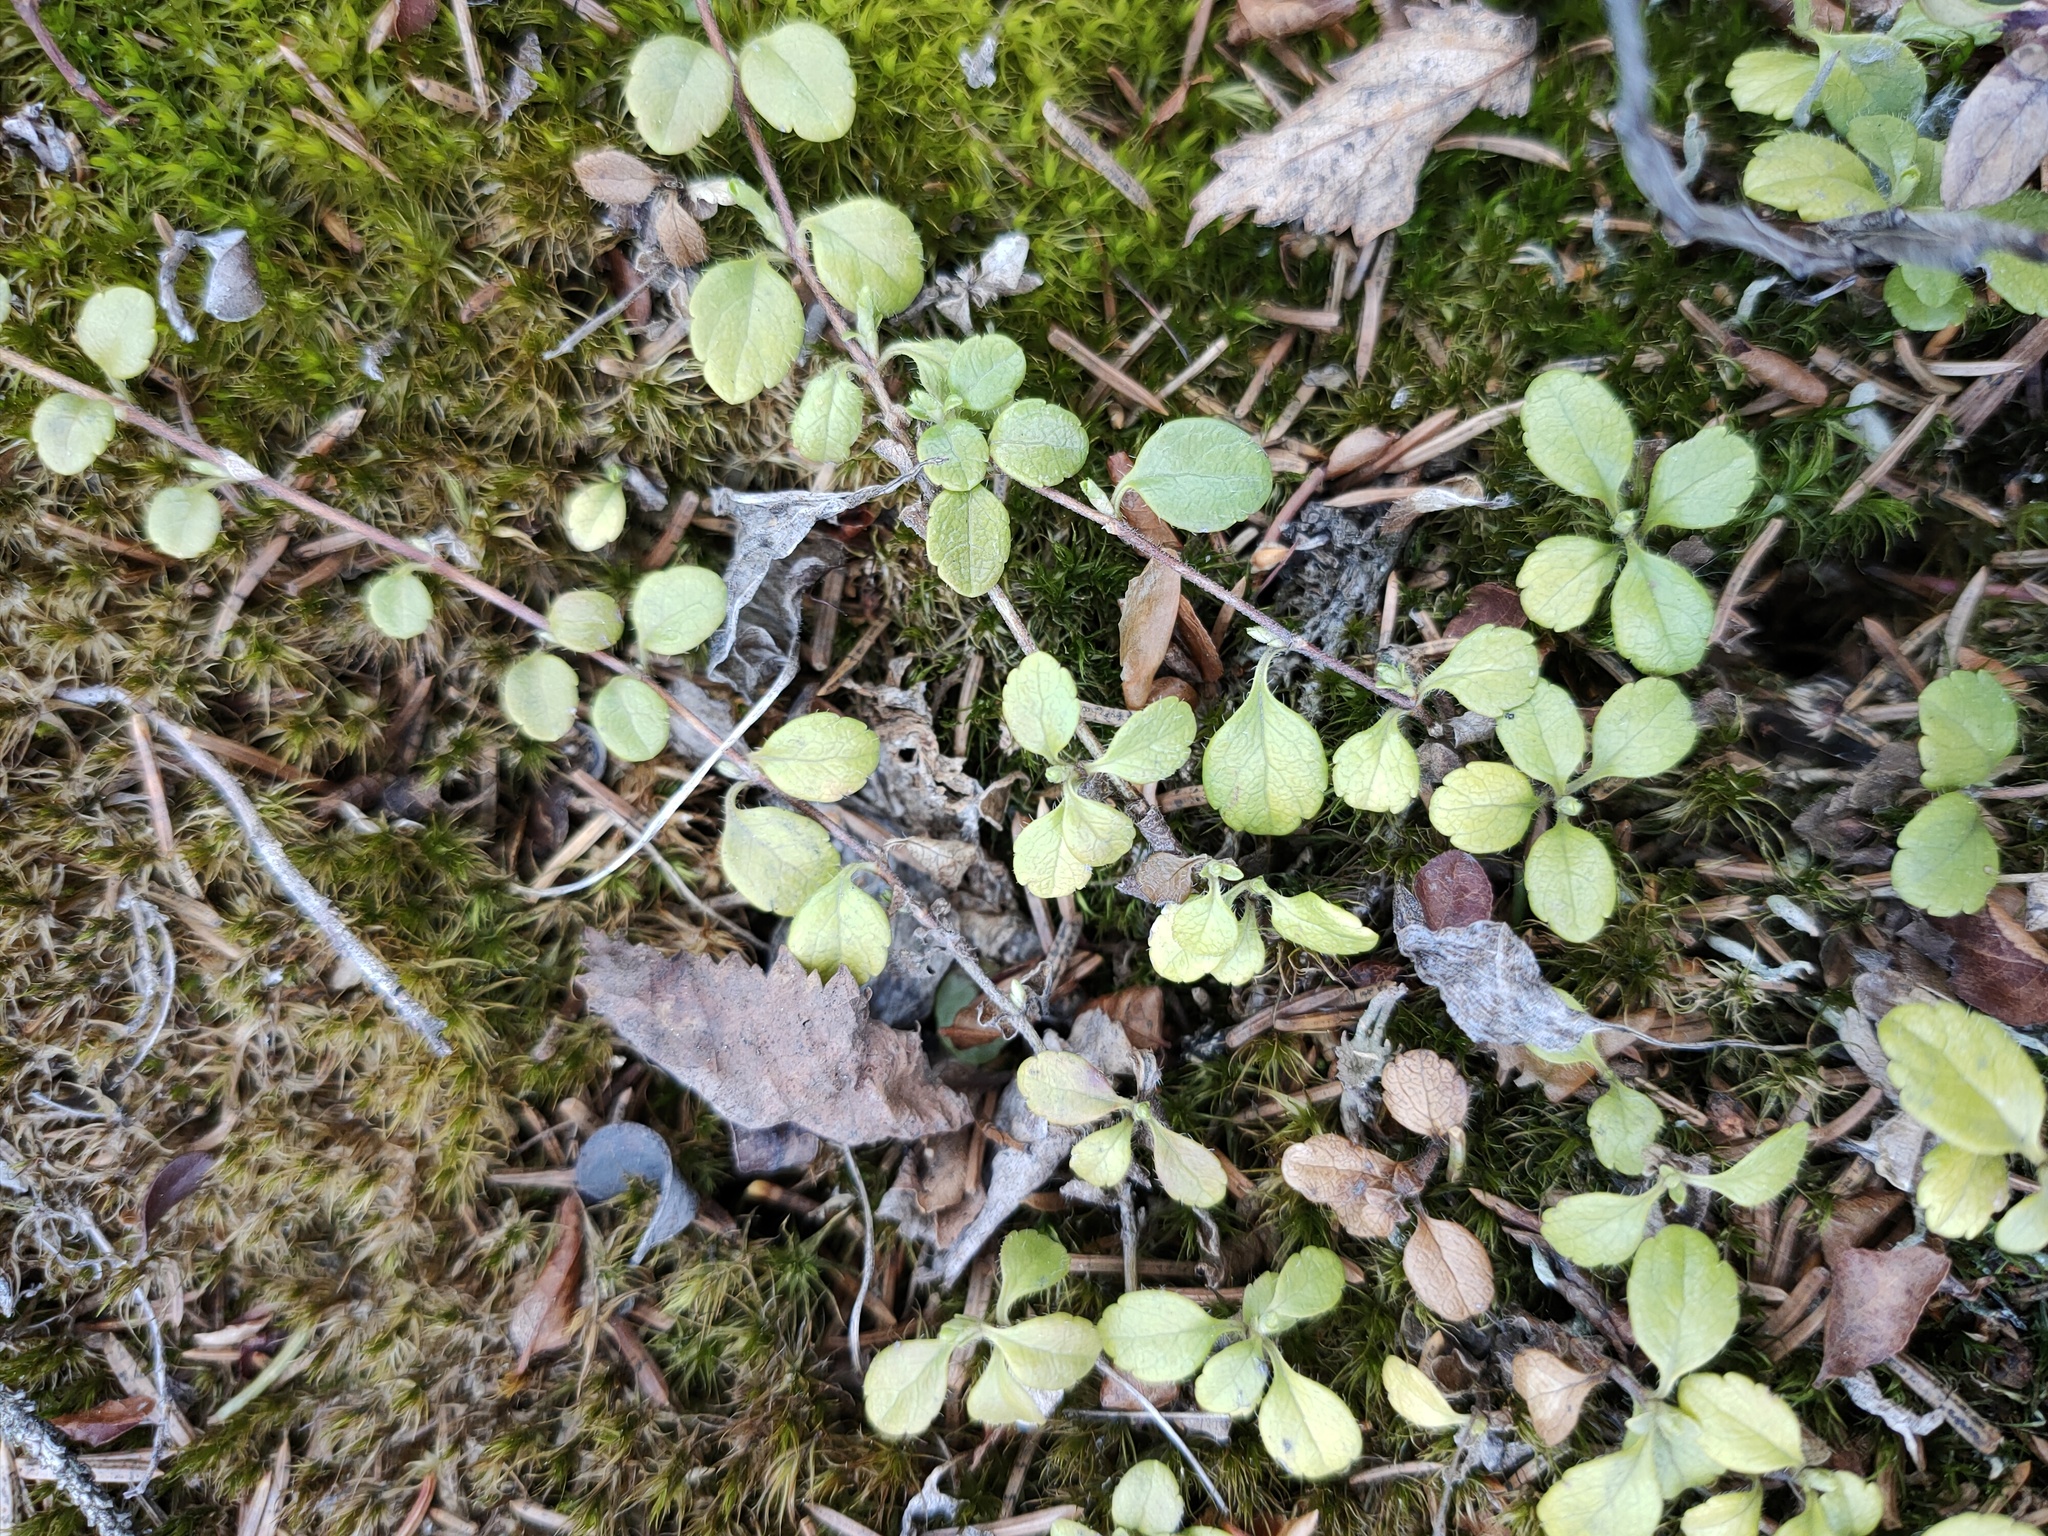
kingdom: Plantae
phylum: Tracheophyta
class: Magnoliopsida
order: Dipsacales
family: Caprifoliaceae
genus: Linnaea
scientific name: Linnaea borealis
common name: Twinflower
